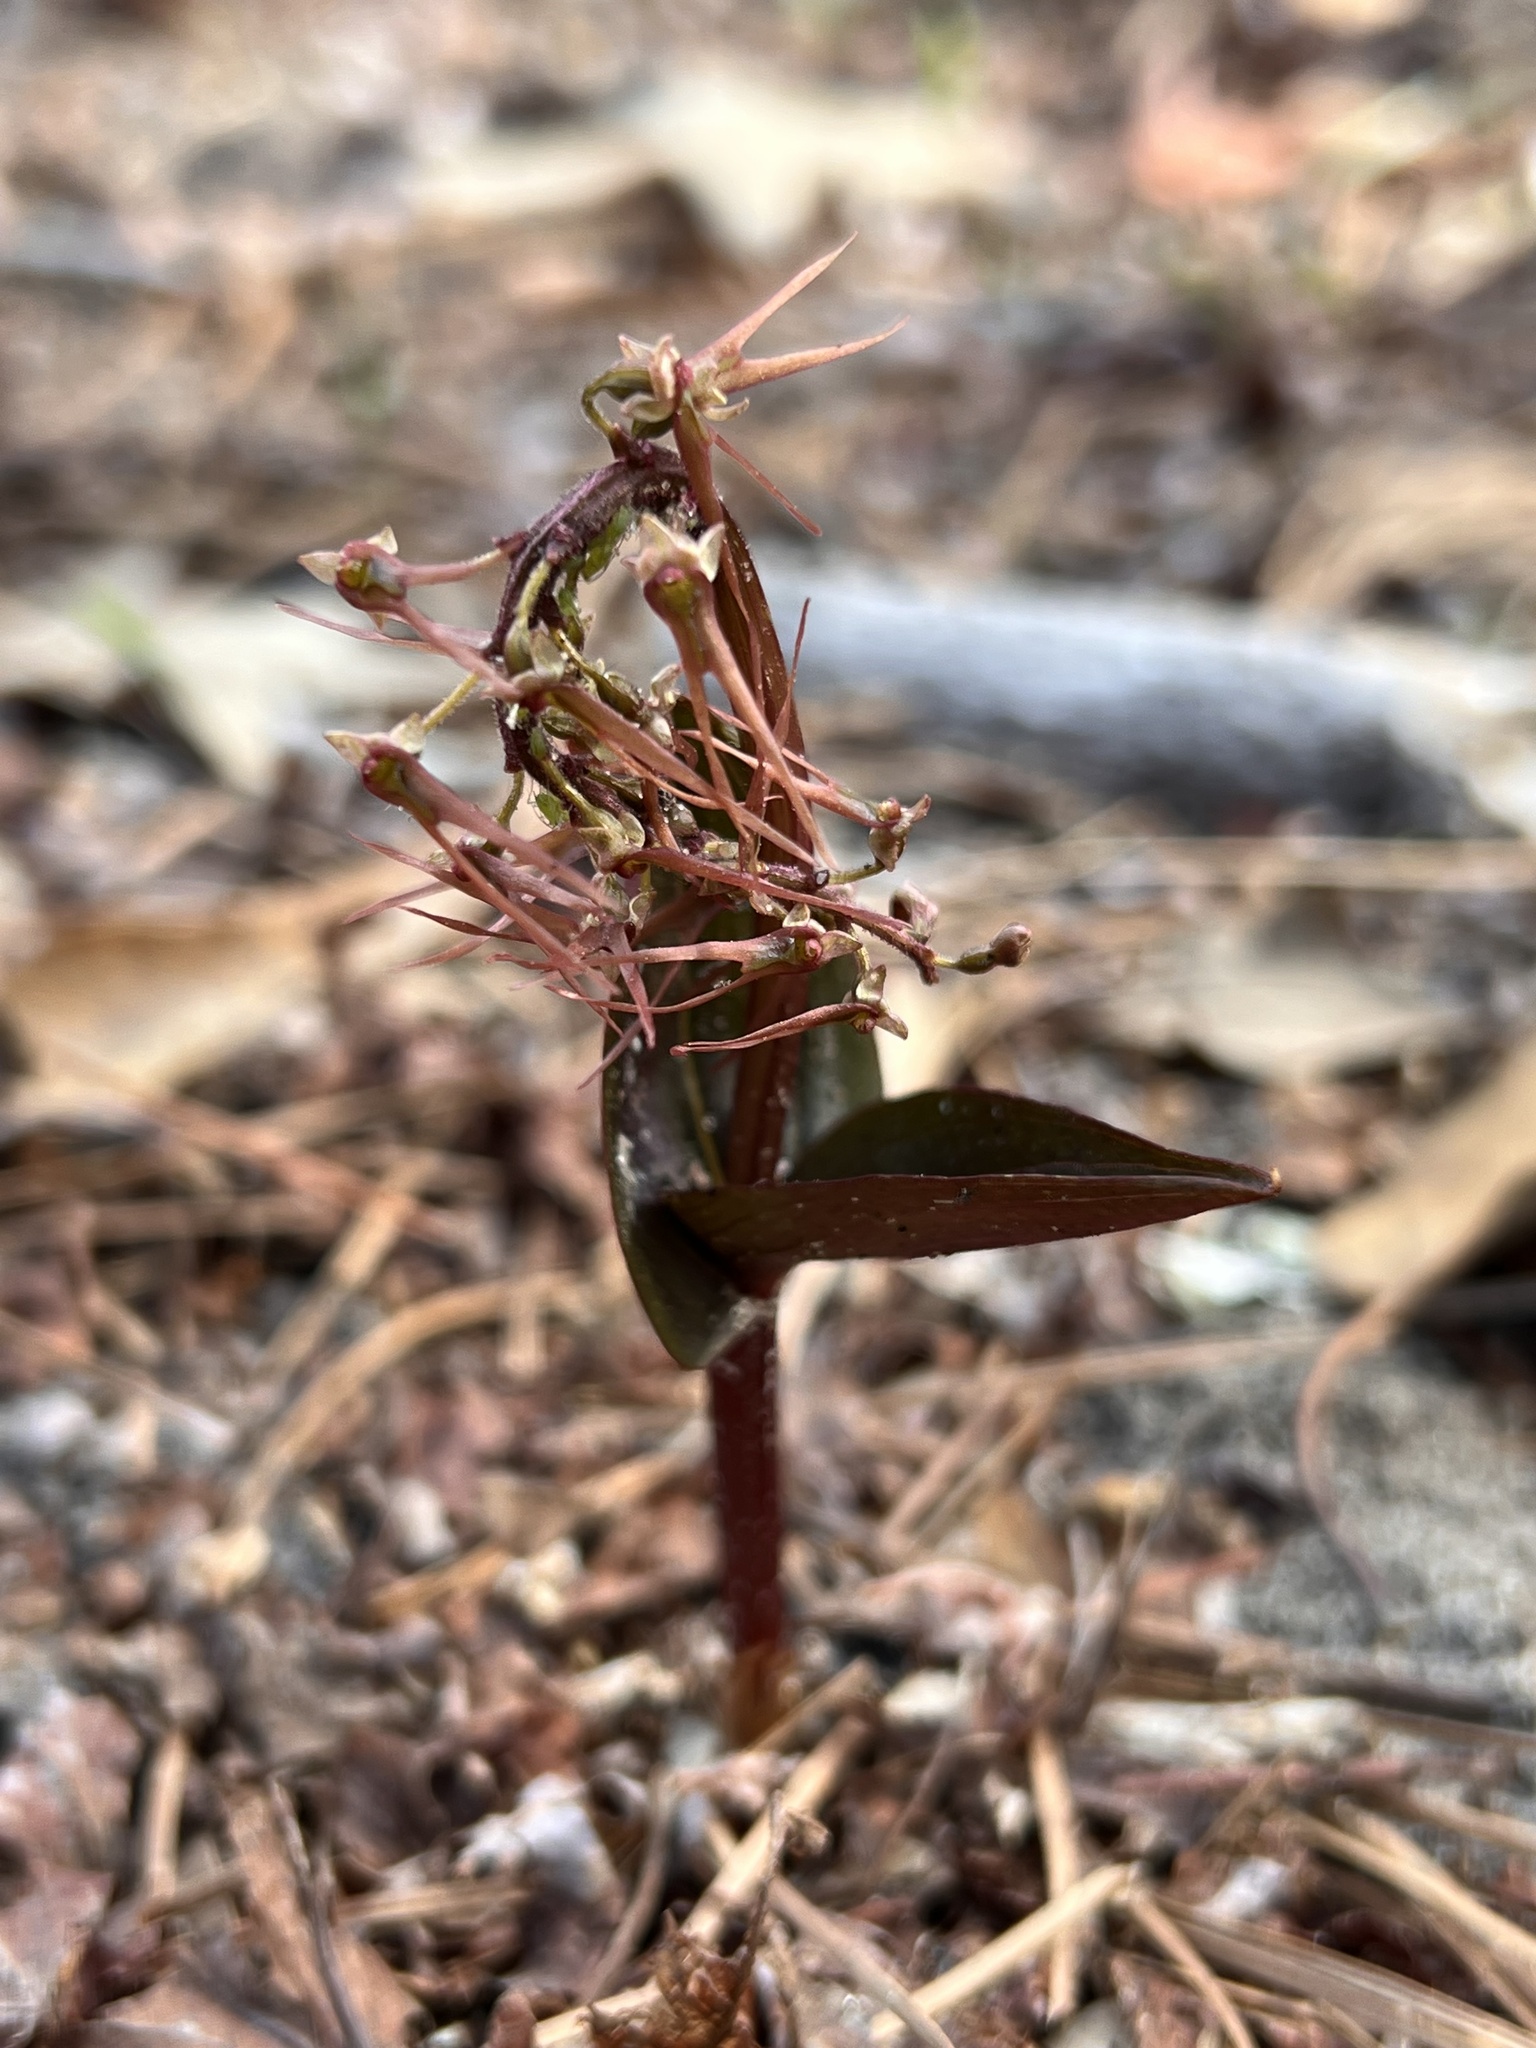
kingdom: Plantae
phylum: Tracheophyta
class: Liliopsida
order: Asparagales
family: Orchidaceae
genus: Neottia
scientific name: Neottia bifolia
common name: Southern twayblade
